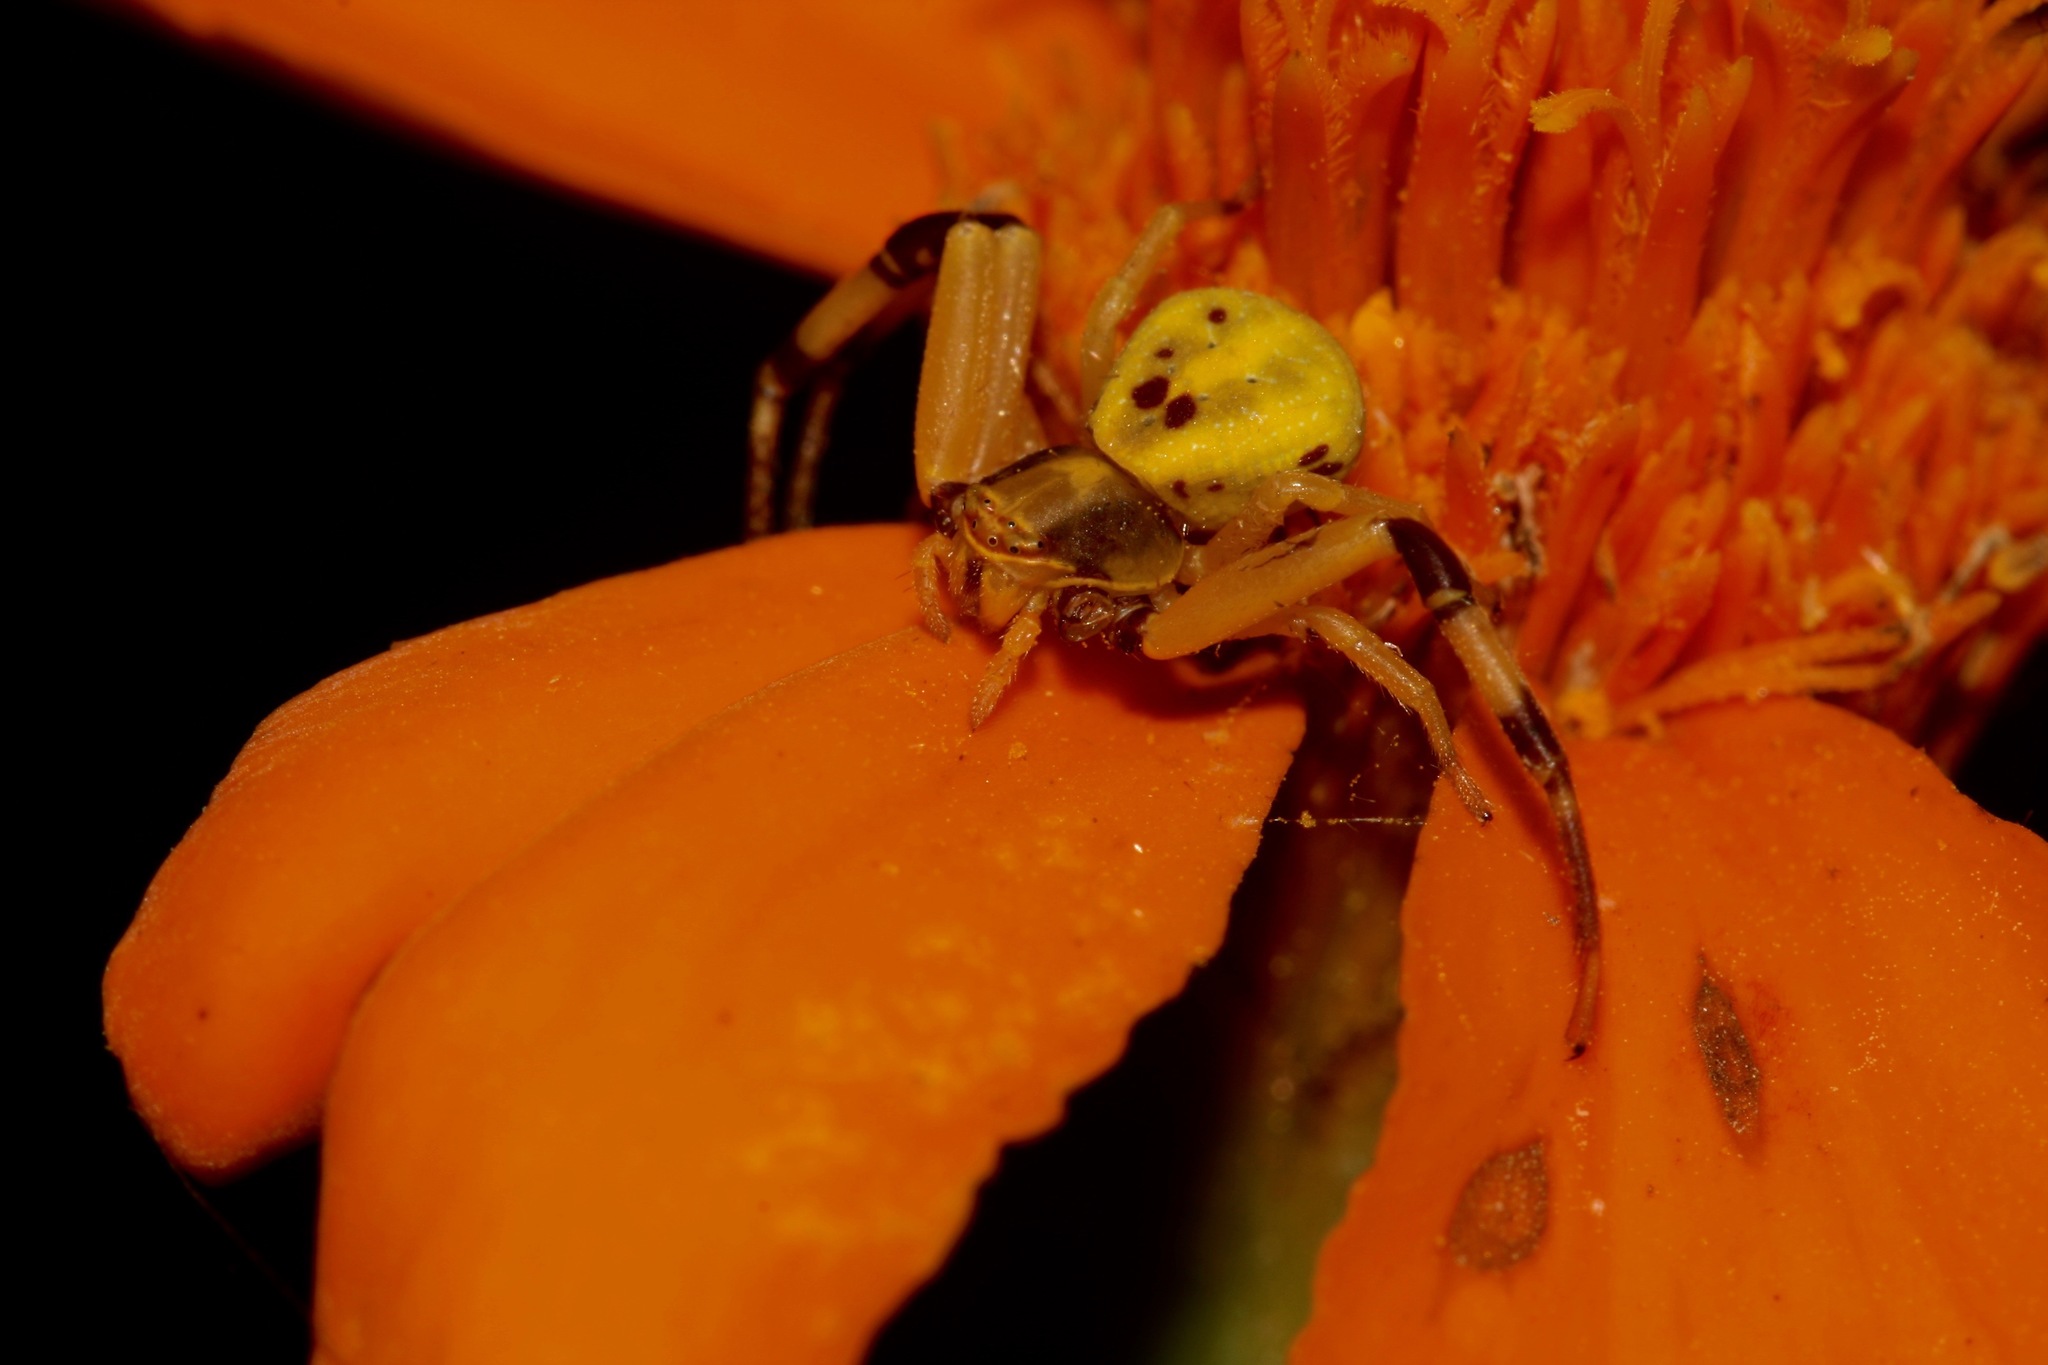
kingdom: Animalia
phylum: Arthropoda
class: Arachnida
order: Araneae
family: Thomisidae
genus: Misumenoides
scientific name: Misumenoides formosipes
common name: White-banded crab spider
